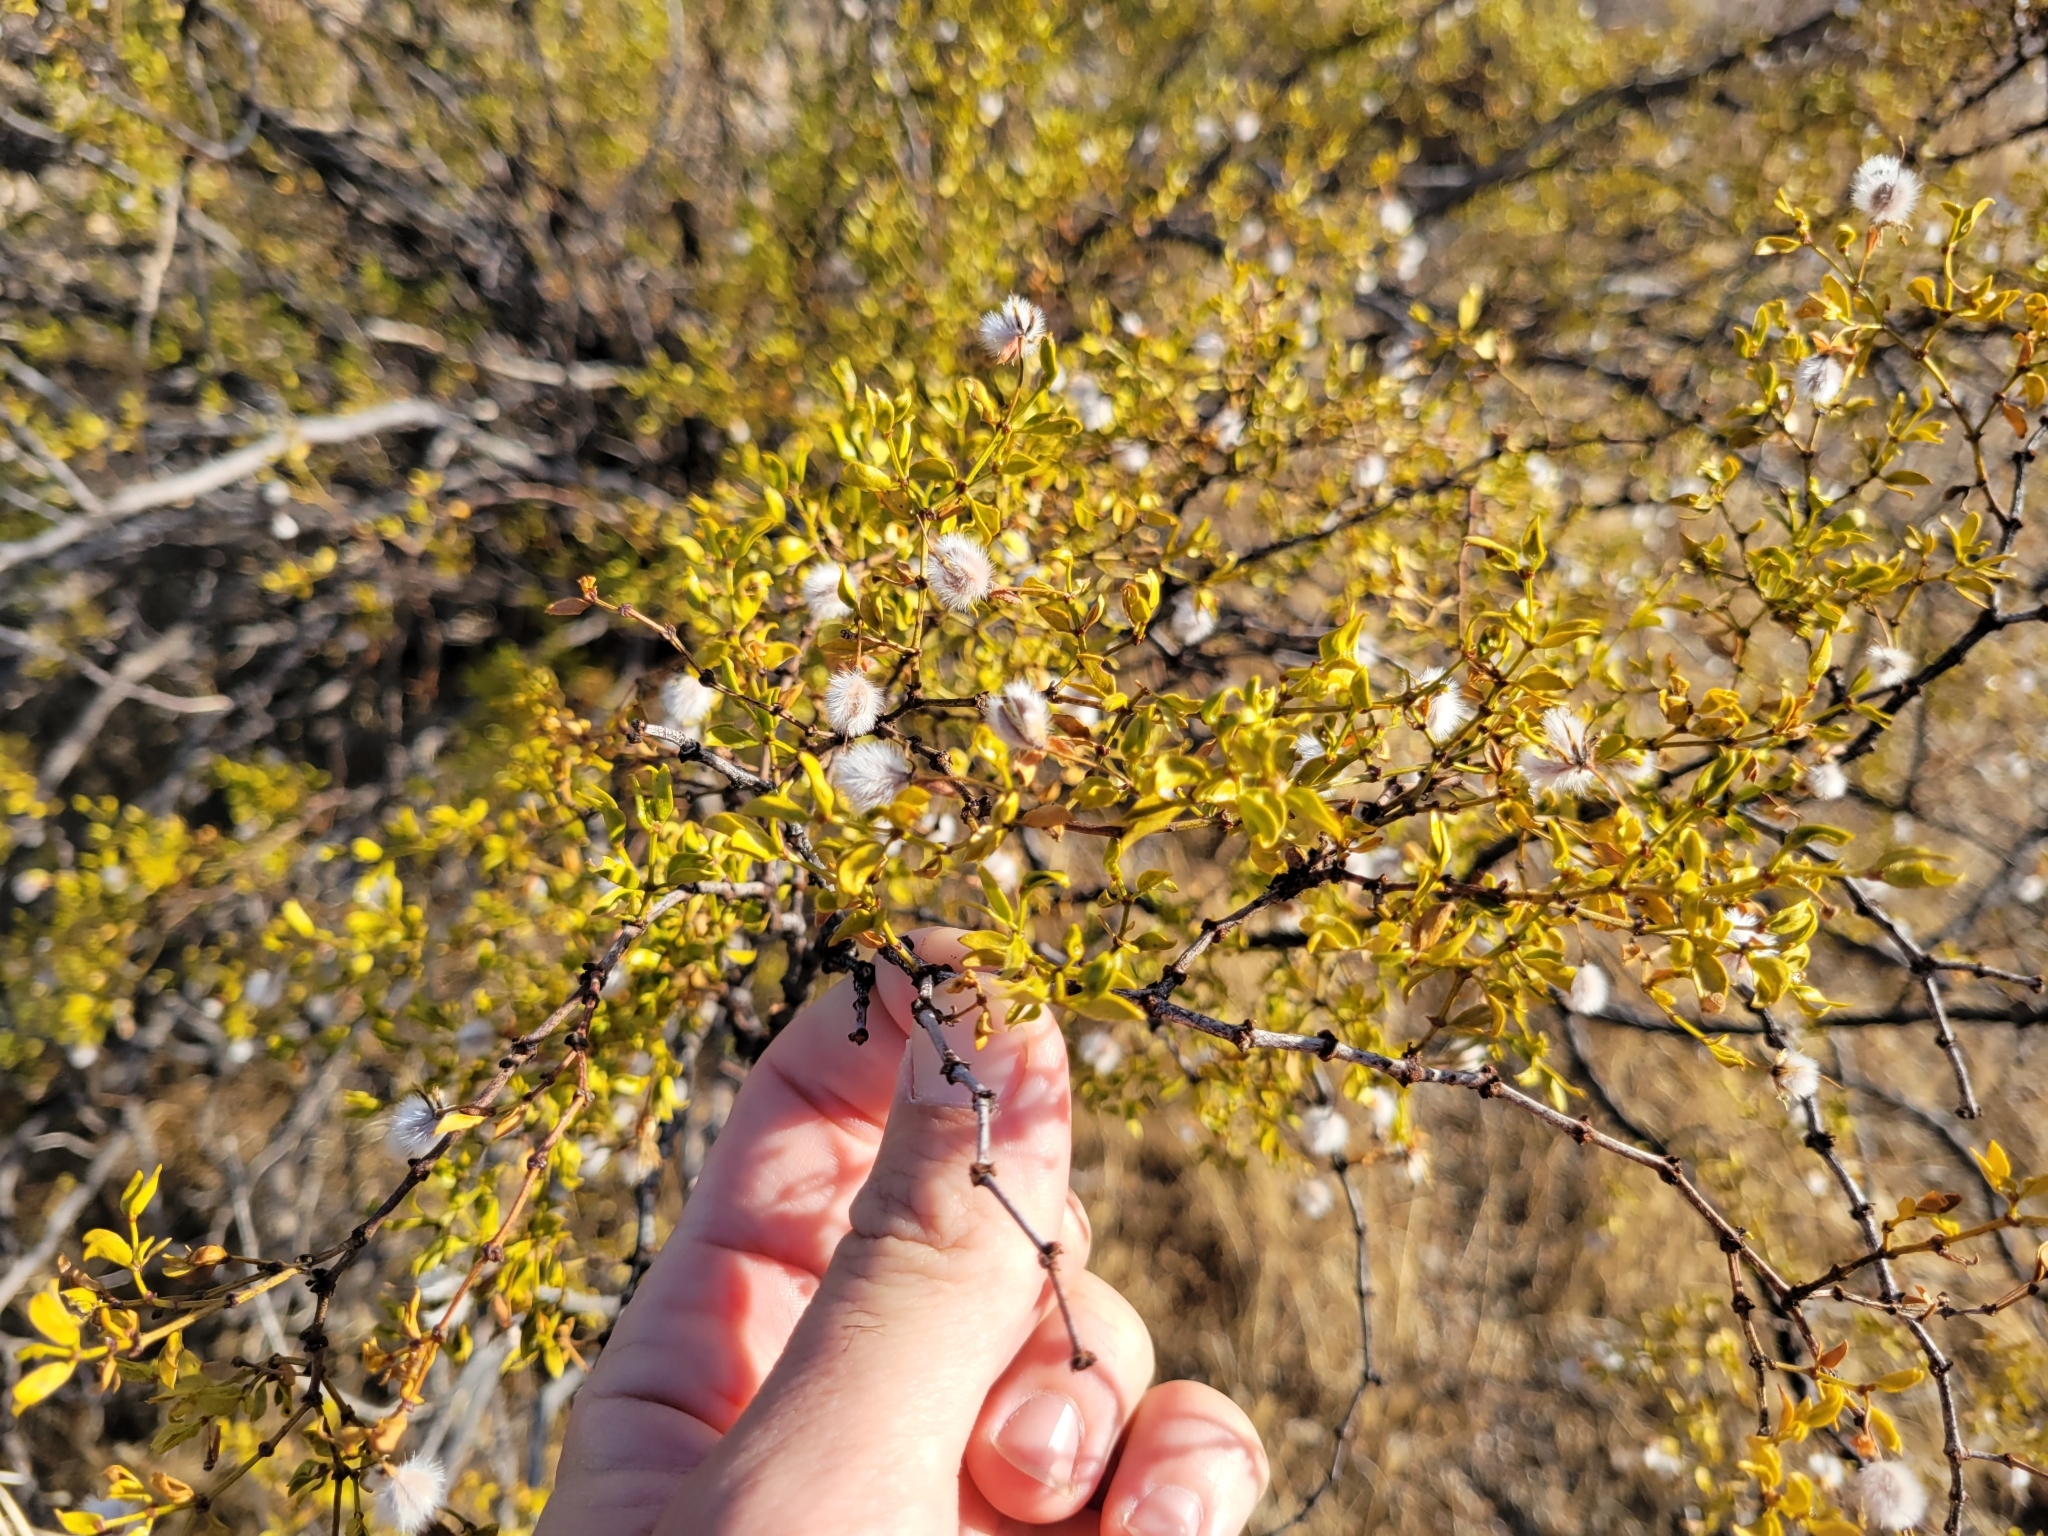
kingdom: Plantae
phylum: Tracheophyta
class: Magnoliopsida
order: Zygophyllales
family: Zygophyllaceae
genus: Larrea
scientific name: Larrea tridentata
